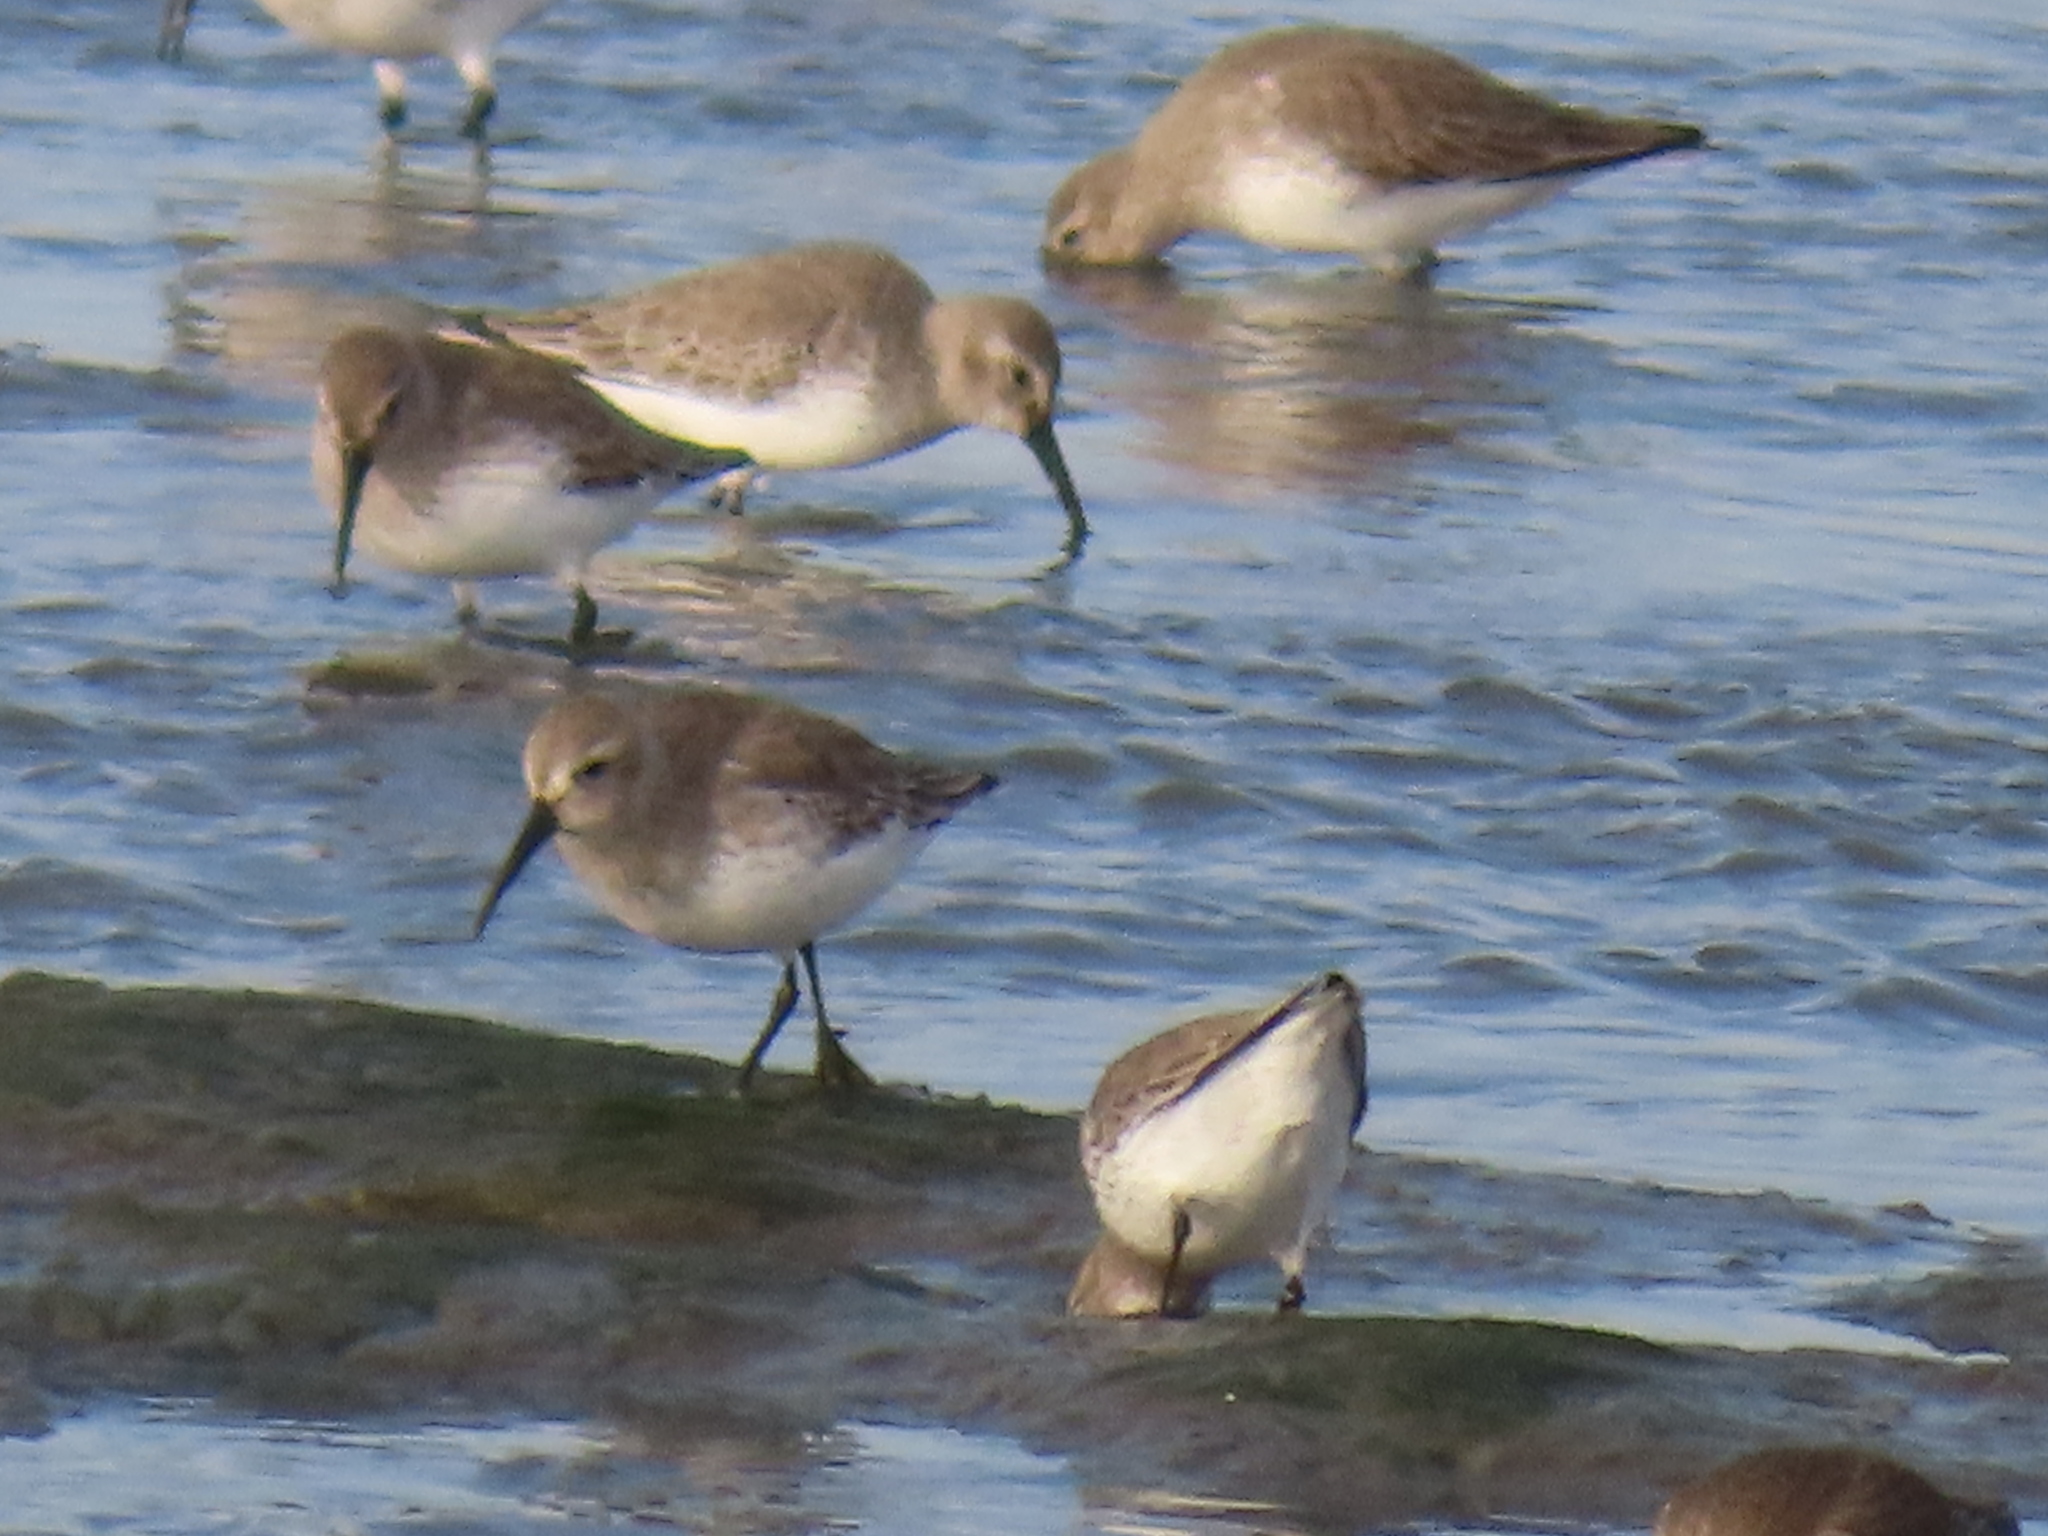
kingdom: Animalia
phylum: Chordata
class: Aves
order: Charadriiformes
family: Scolopacidae
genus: Calidris
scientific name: Calidris alpina
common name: Dunlin
